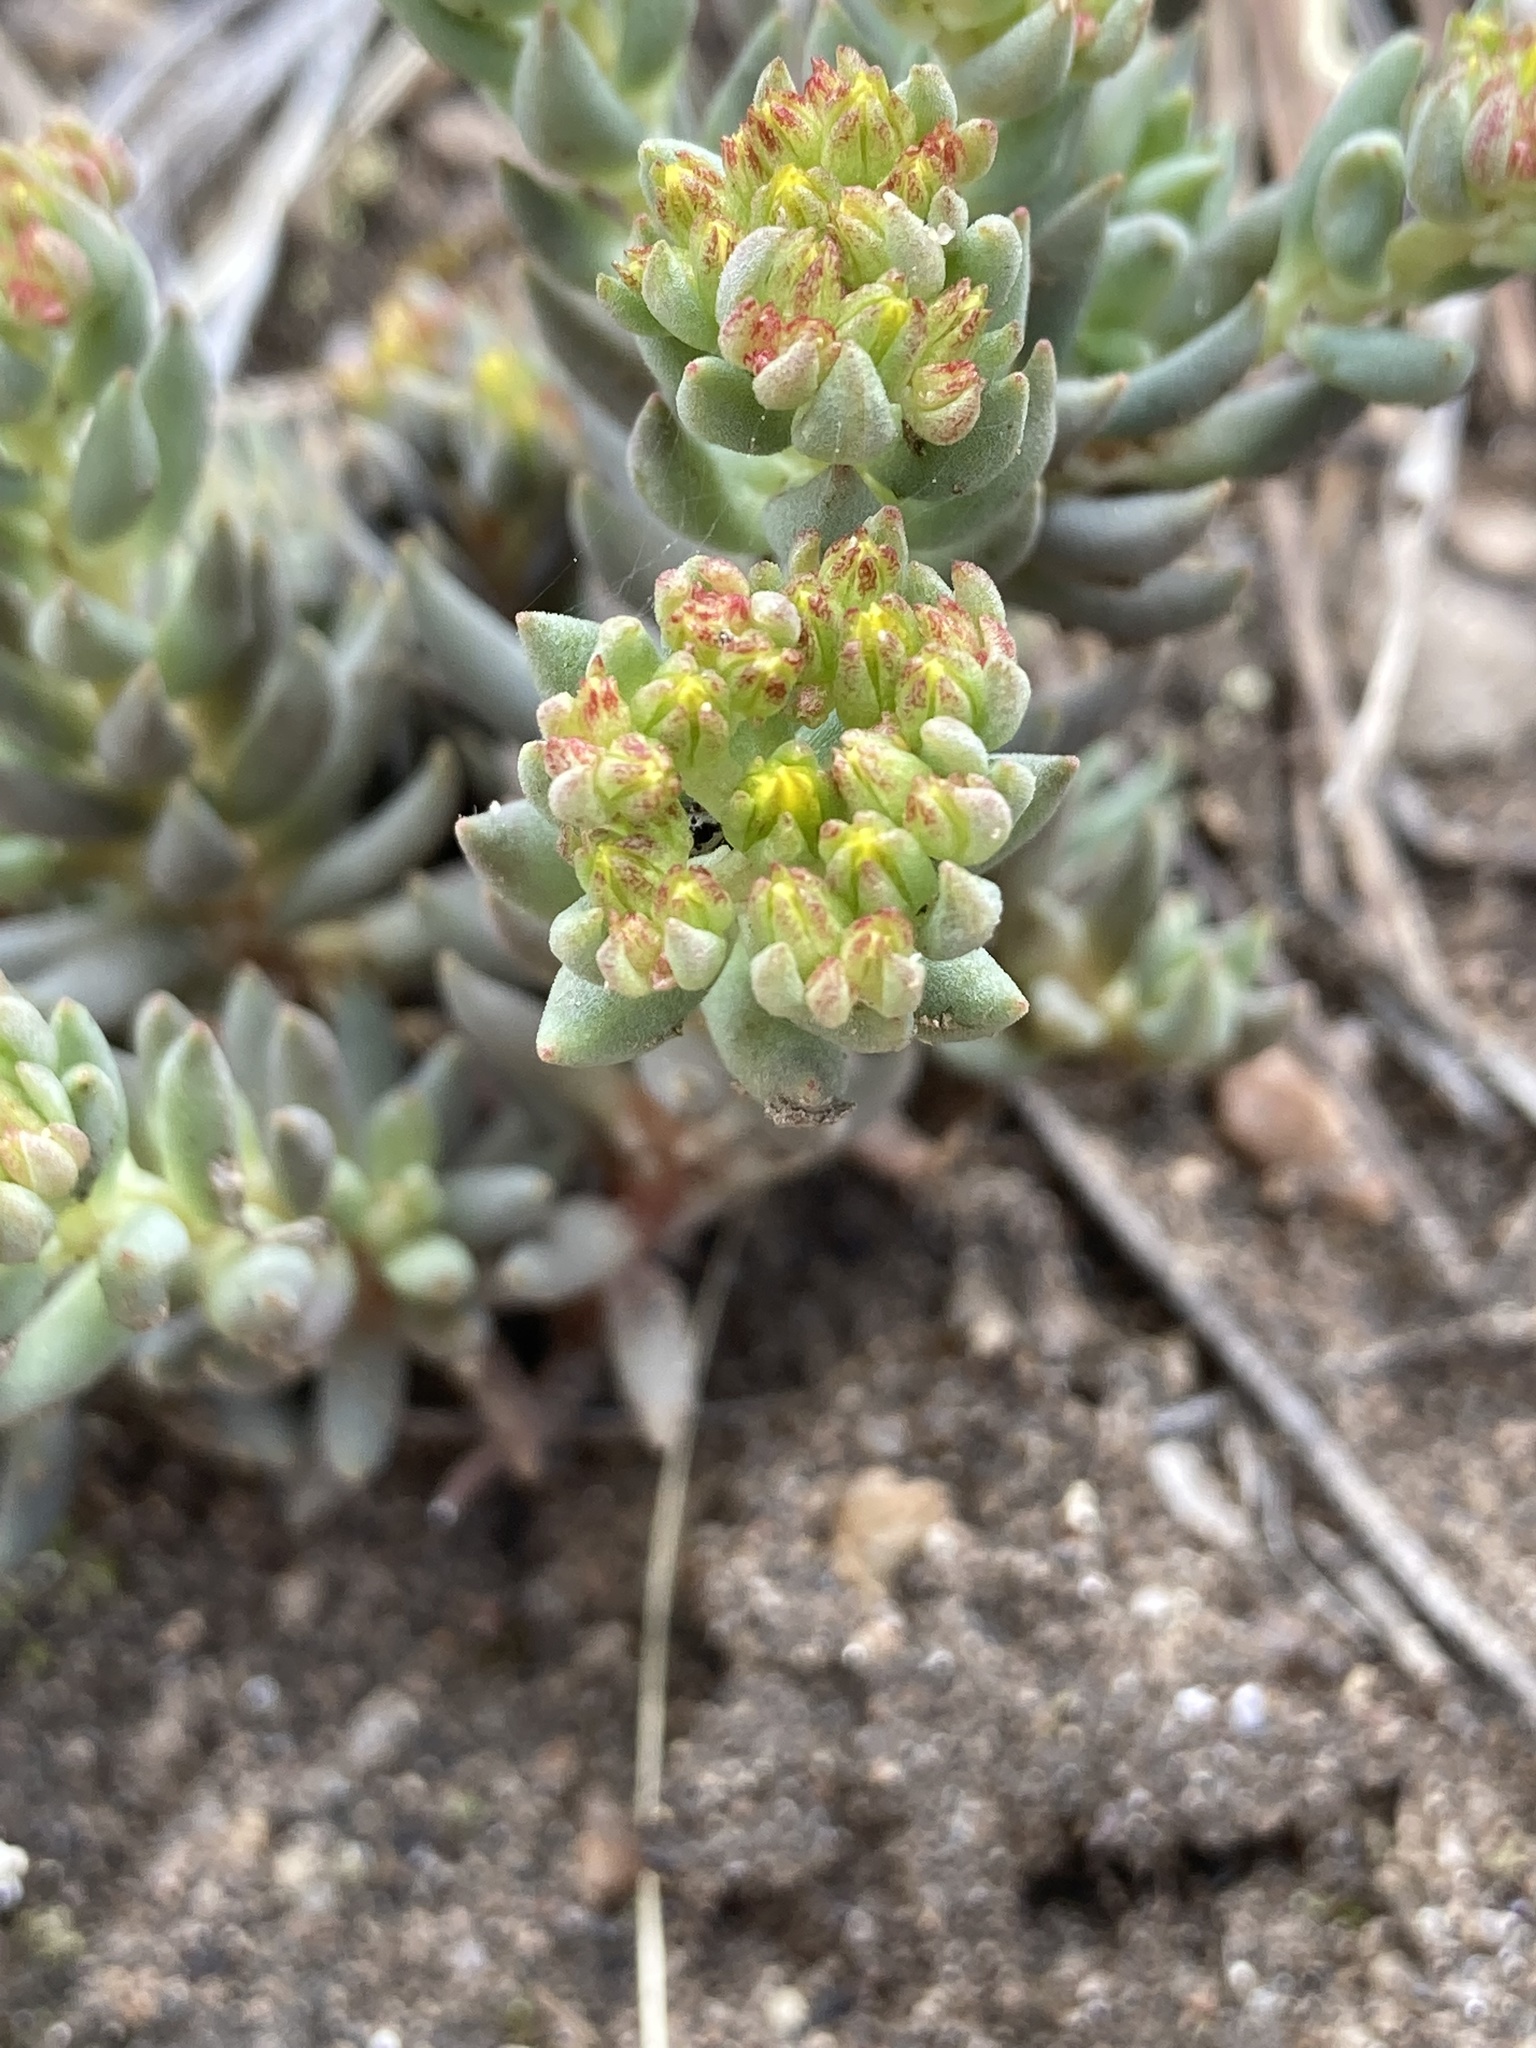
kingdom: Plantae
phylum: Tracheophyta
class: Magnoliopsida
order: Saxifragales
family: Crassulaceae
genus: Sedum
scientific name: Sedum lanceolatum
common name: Common stonecrop
